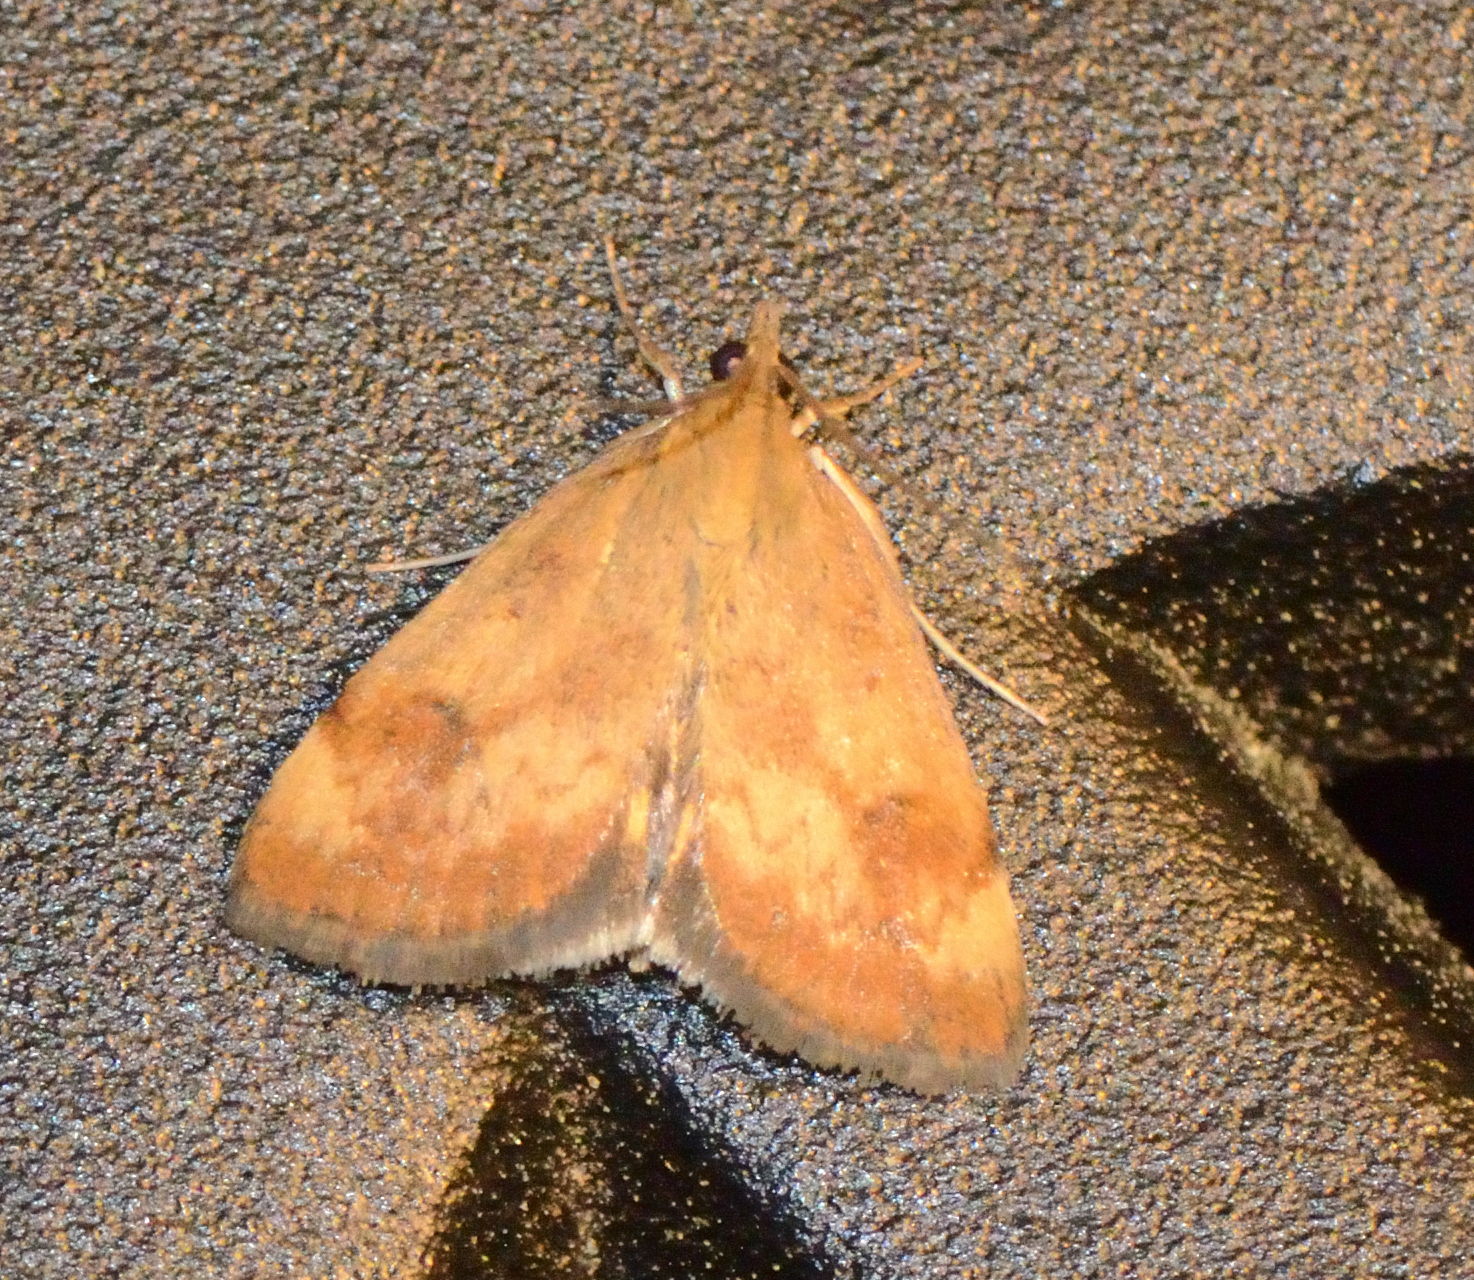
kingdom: Animalia
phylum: Arthropoda
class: Insecta
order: Lepidoptera
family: Crambidae
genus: Pyrausta
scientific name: Pyrausta homonymalis
